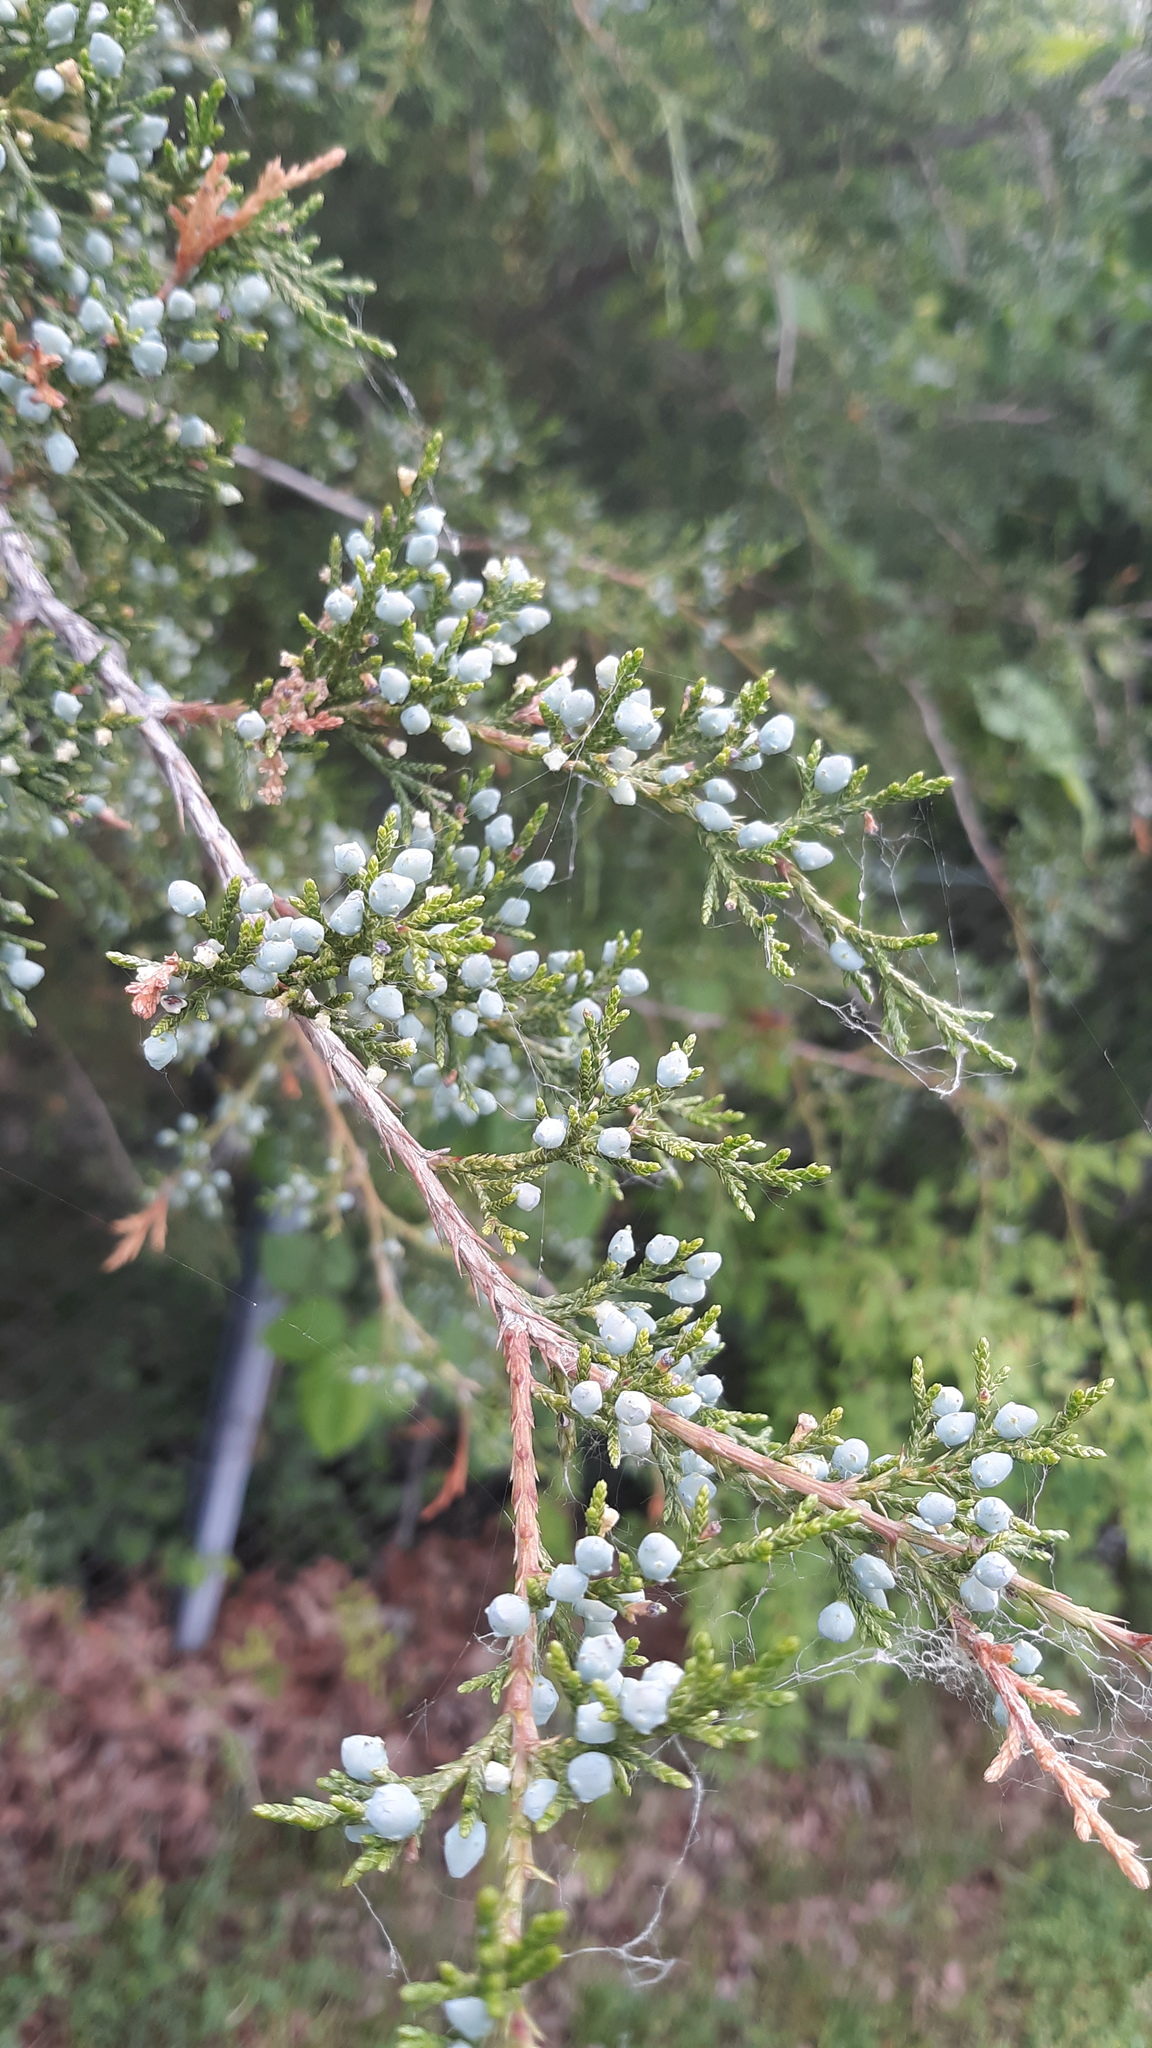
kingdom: Plantae
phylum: Tracheophyta
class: Pinopsida
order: Pinales
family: Cupressaceae
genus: Juniperus
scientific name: Juniperus virginiana
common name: Red juniper
